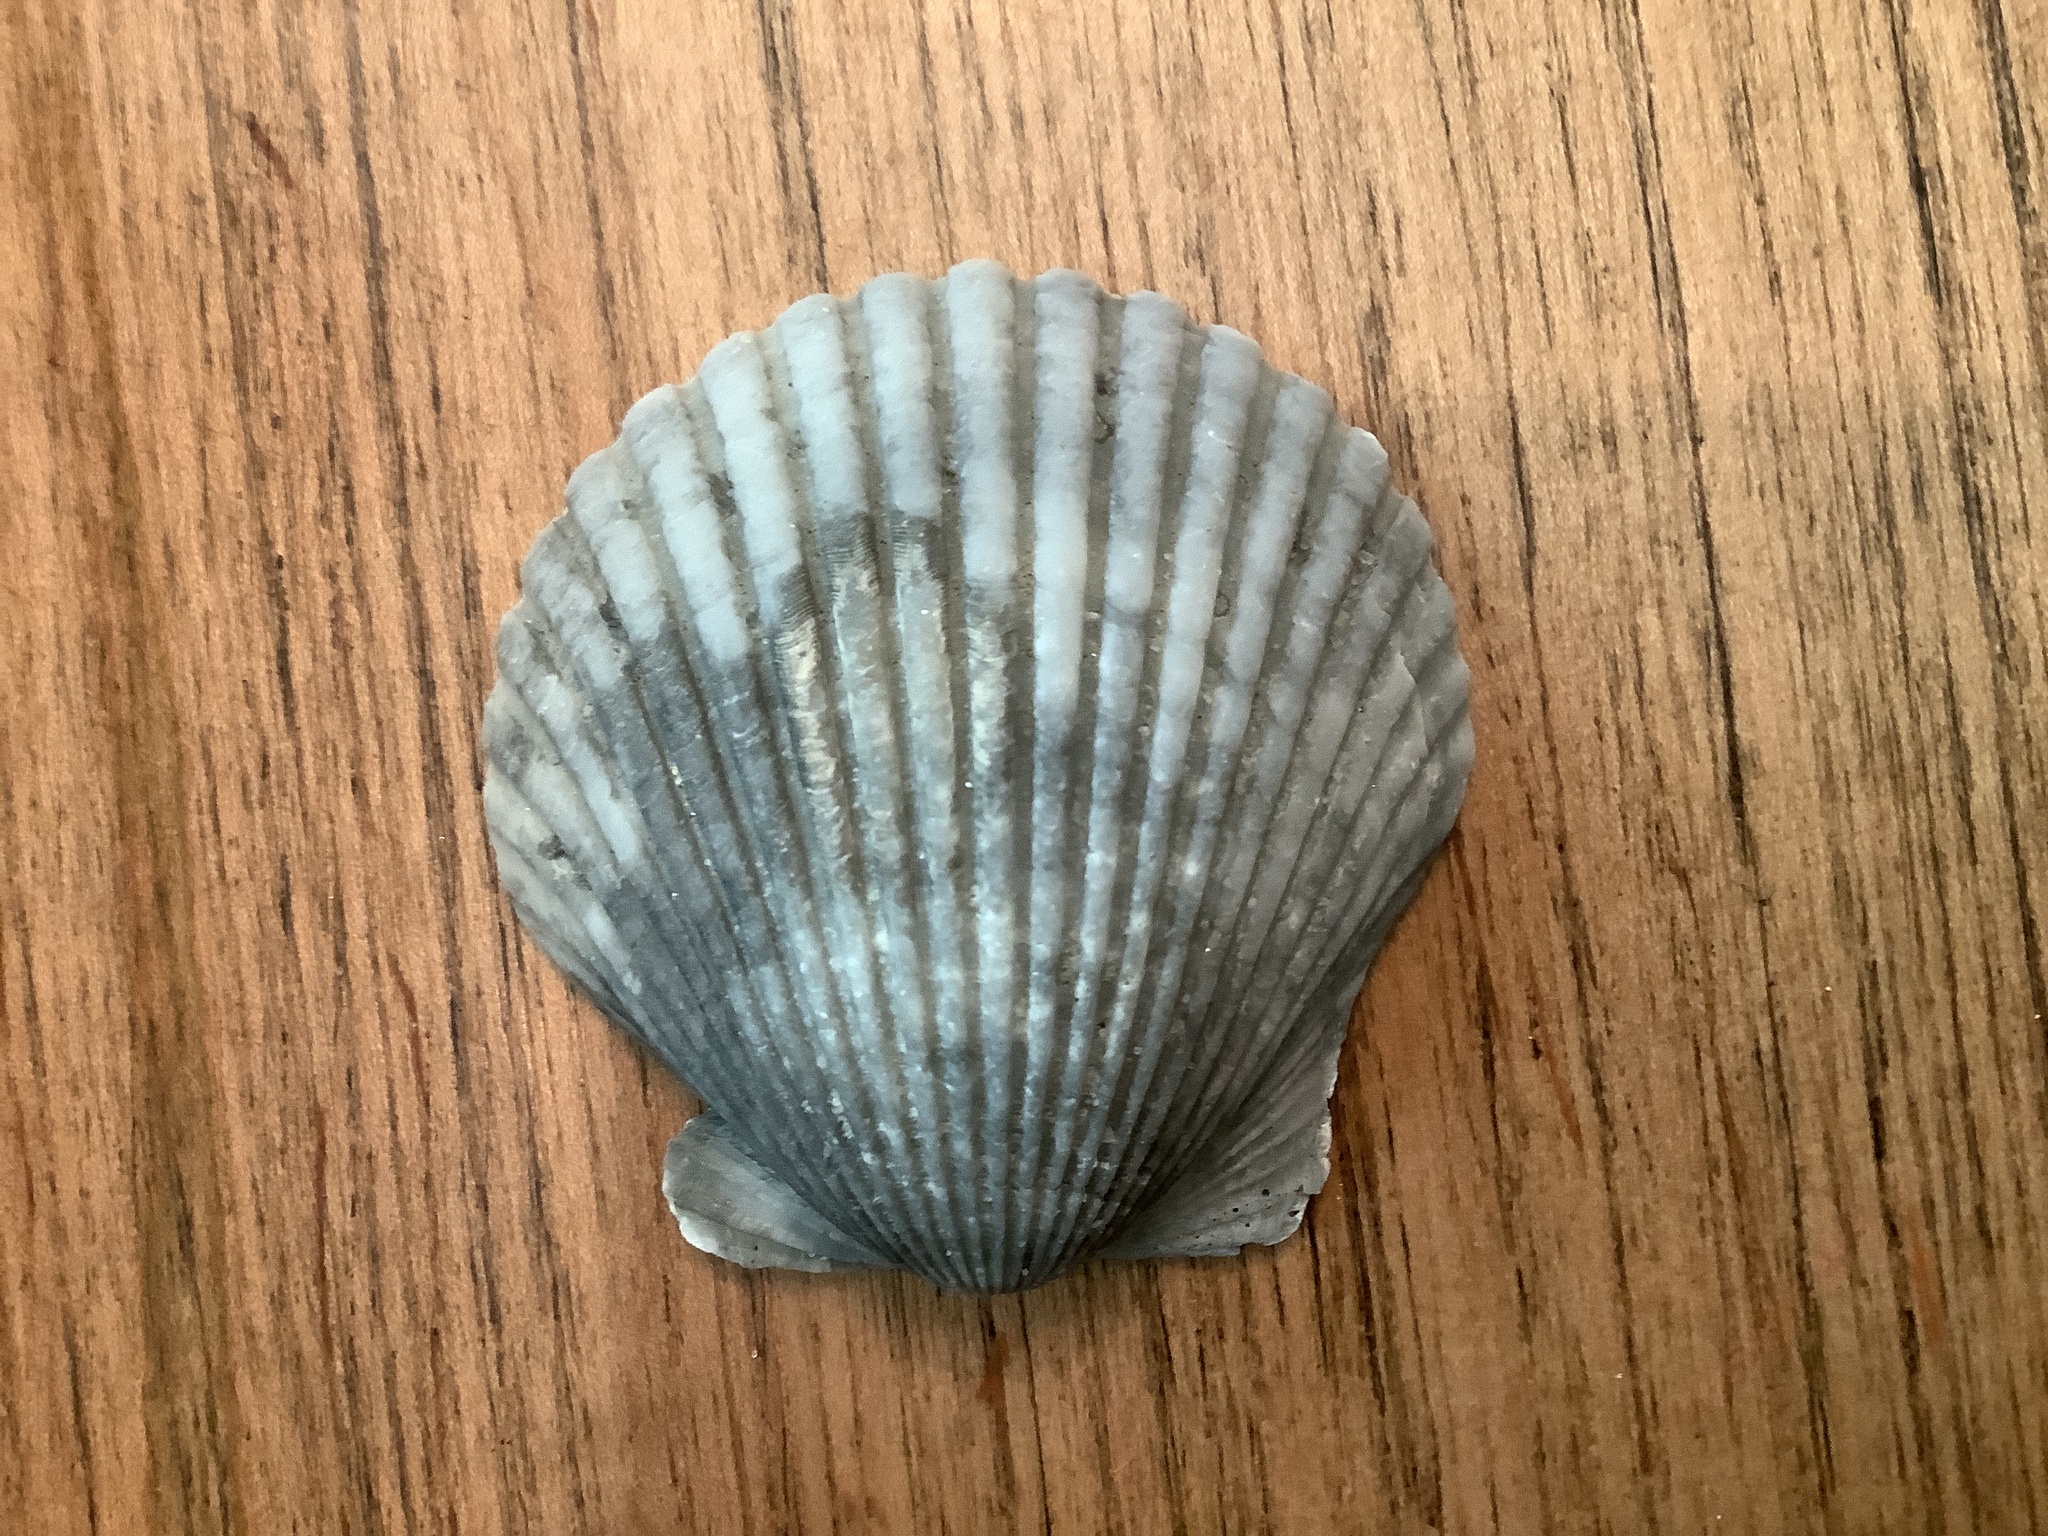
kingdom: Animalia
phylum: Mollusca
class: Bivalvia
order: Pectinida
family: Pectinidae
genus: Argopecten
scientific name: Argopecten irradians
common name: Atlantic bay scallop
